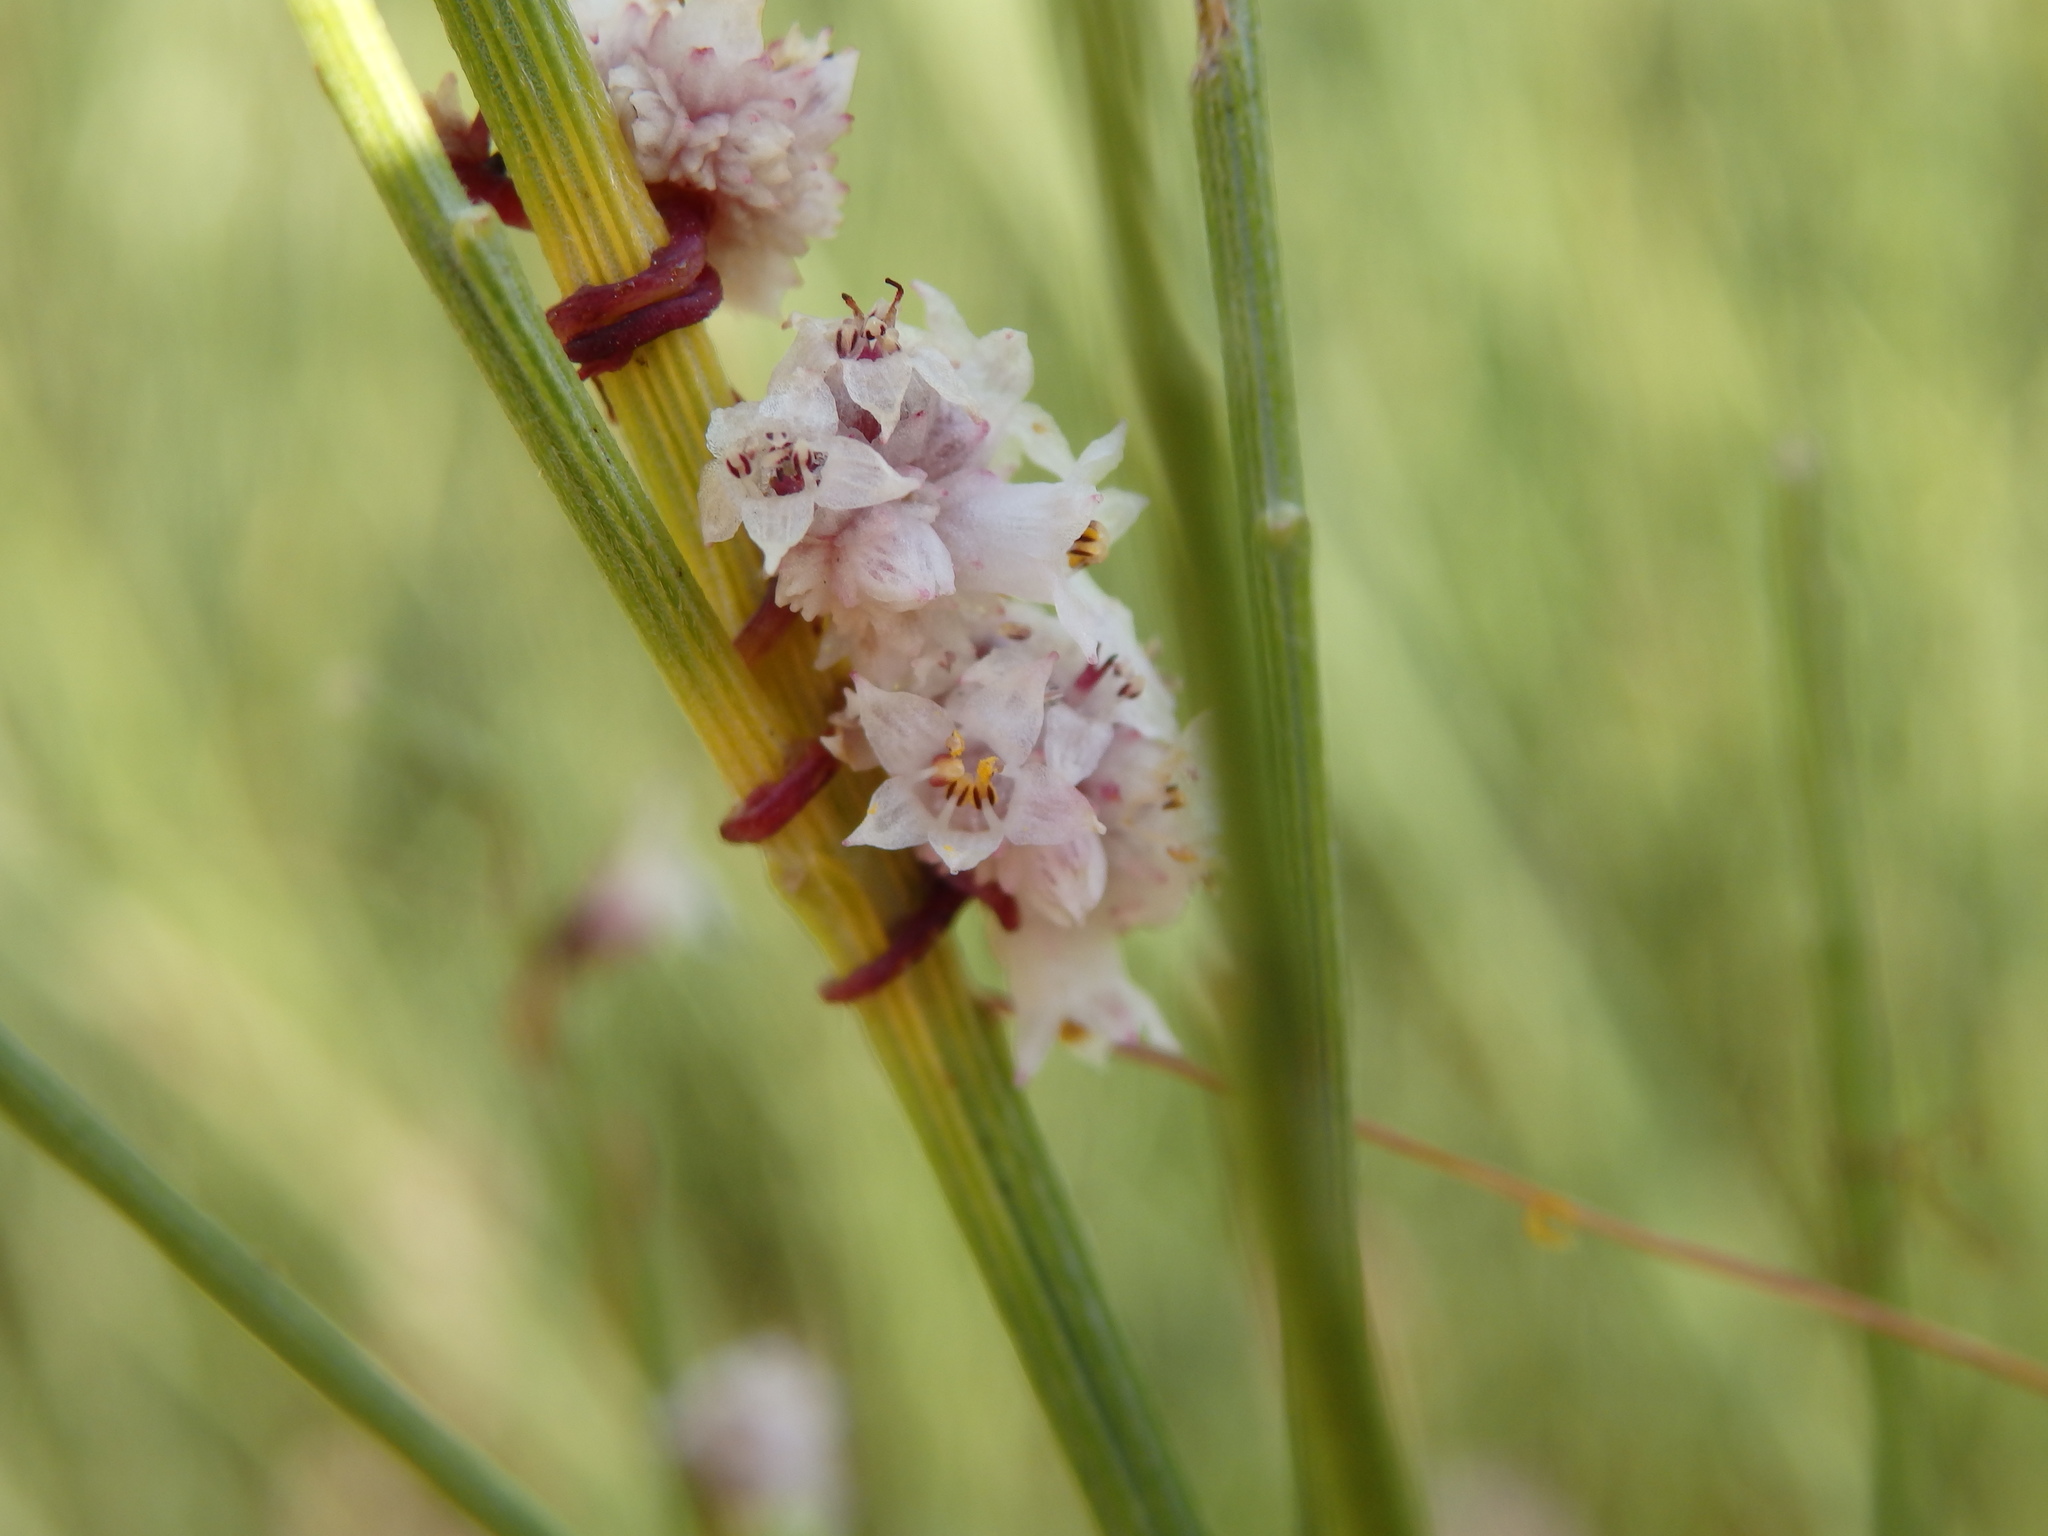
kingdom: Plantae
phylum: Tracheophyta
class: Magnoliopsida
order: Solanales
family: Convolvulaceae
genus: Cuscuta
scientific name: Cuscuta planiflora
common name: Small-seed alfalfa dodder
